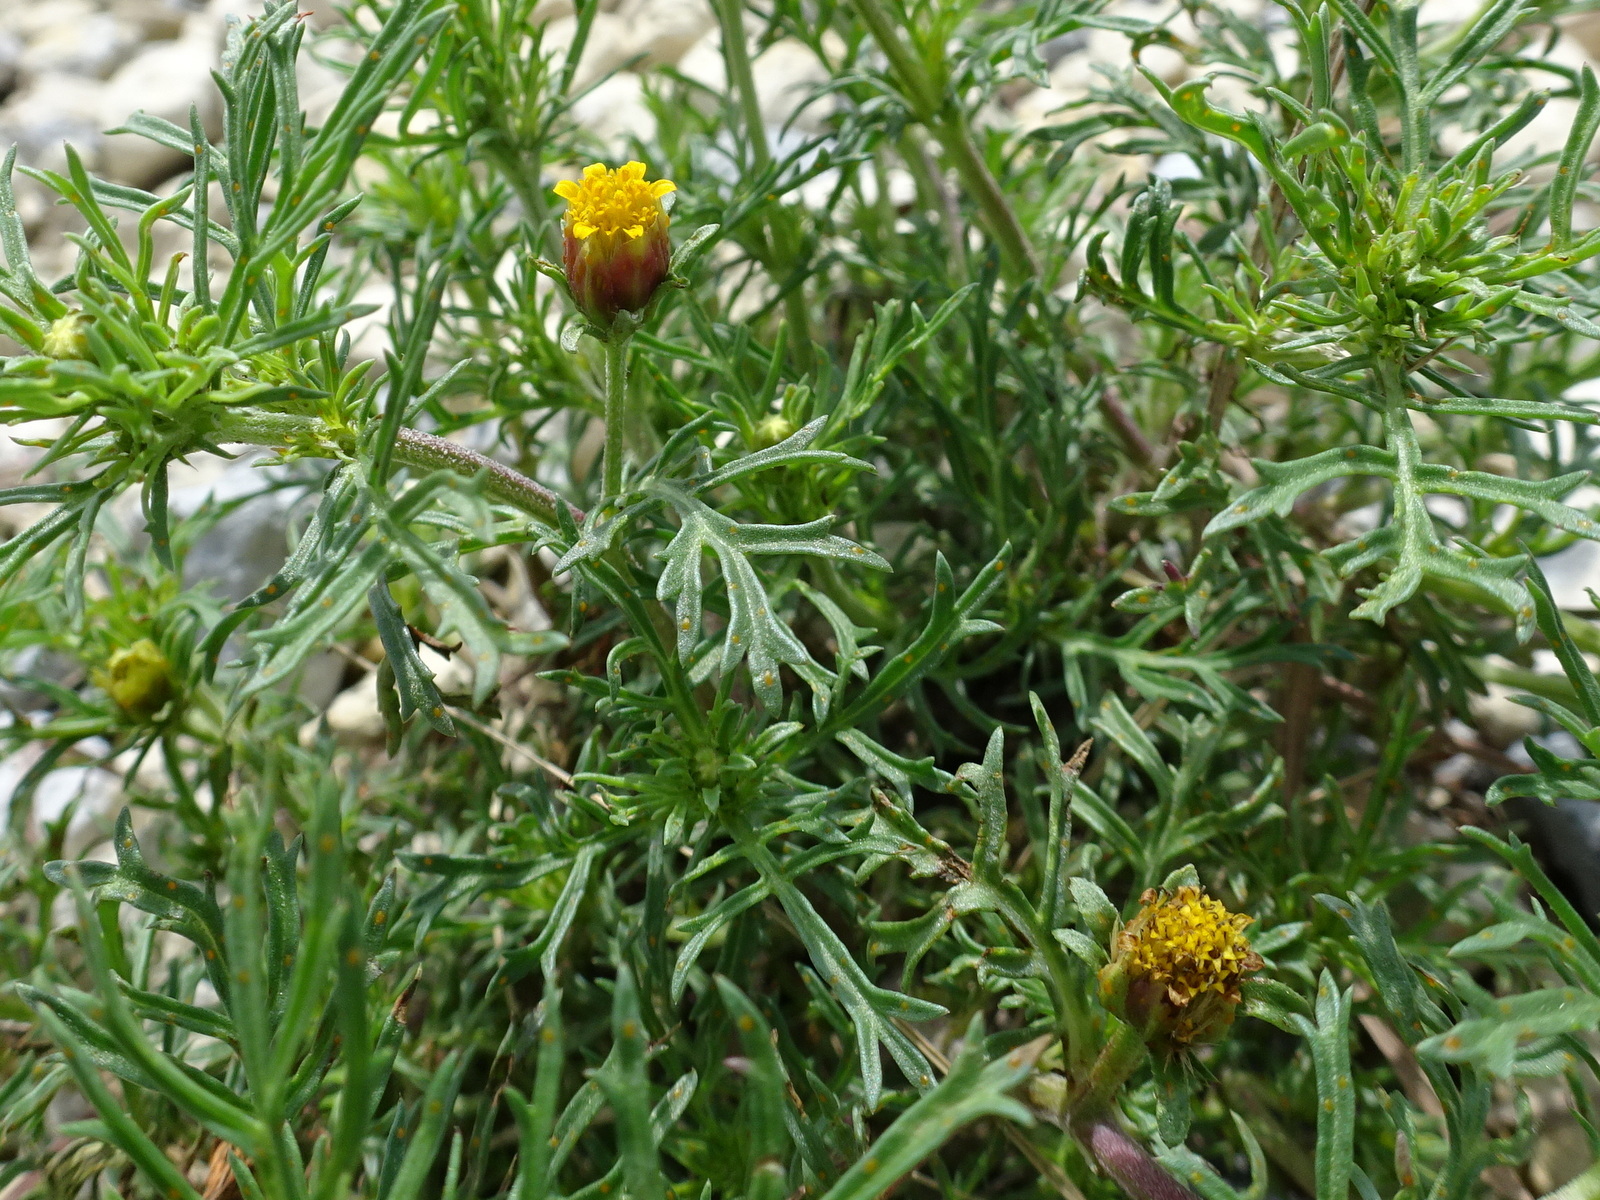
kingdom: Plantae
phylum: Tracheophyta
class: Magnoliopsida
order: Asterales
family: Asteraceae
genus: Dyssodia
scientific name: Dyssodia papposa
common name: Dogweed
